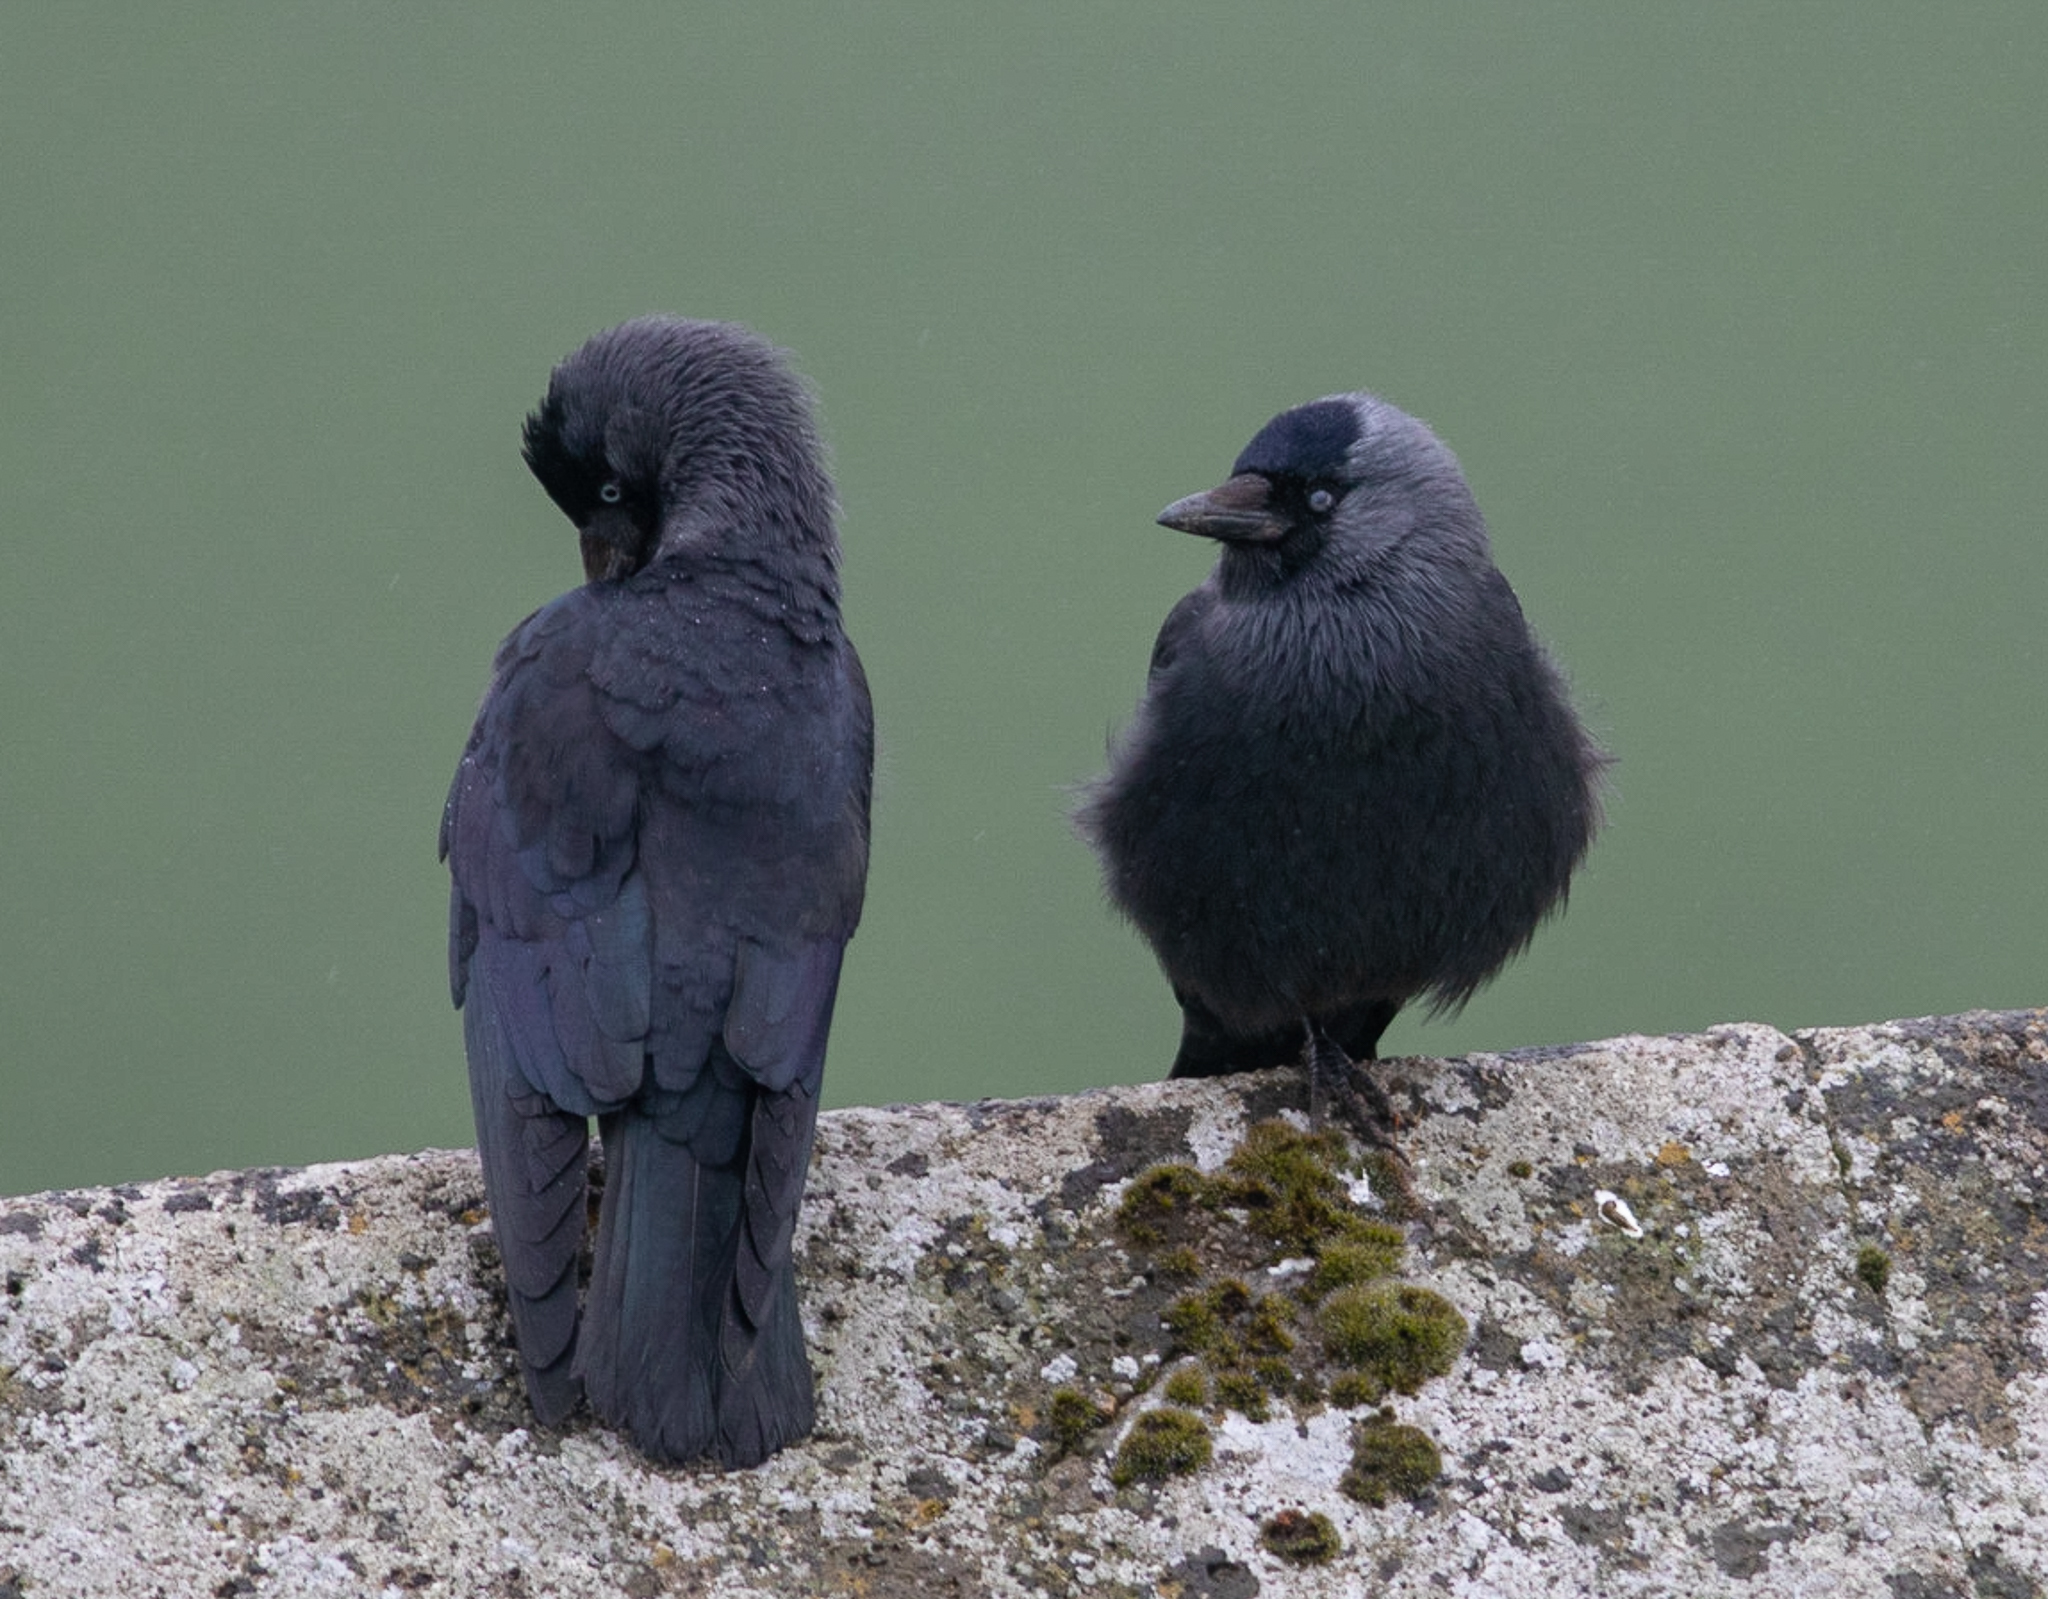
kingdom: Animalia
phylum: Chordata
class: Aves
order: Passeriformes
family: Corvidae
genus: Coloeus
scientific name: Coloeus monedula
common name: Western jackdaw
